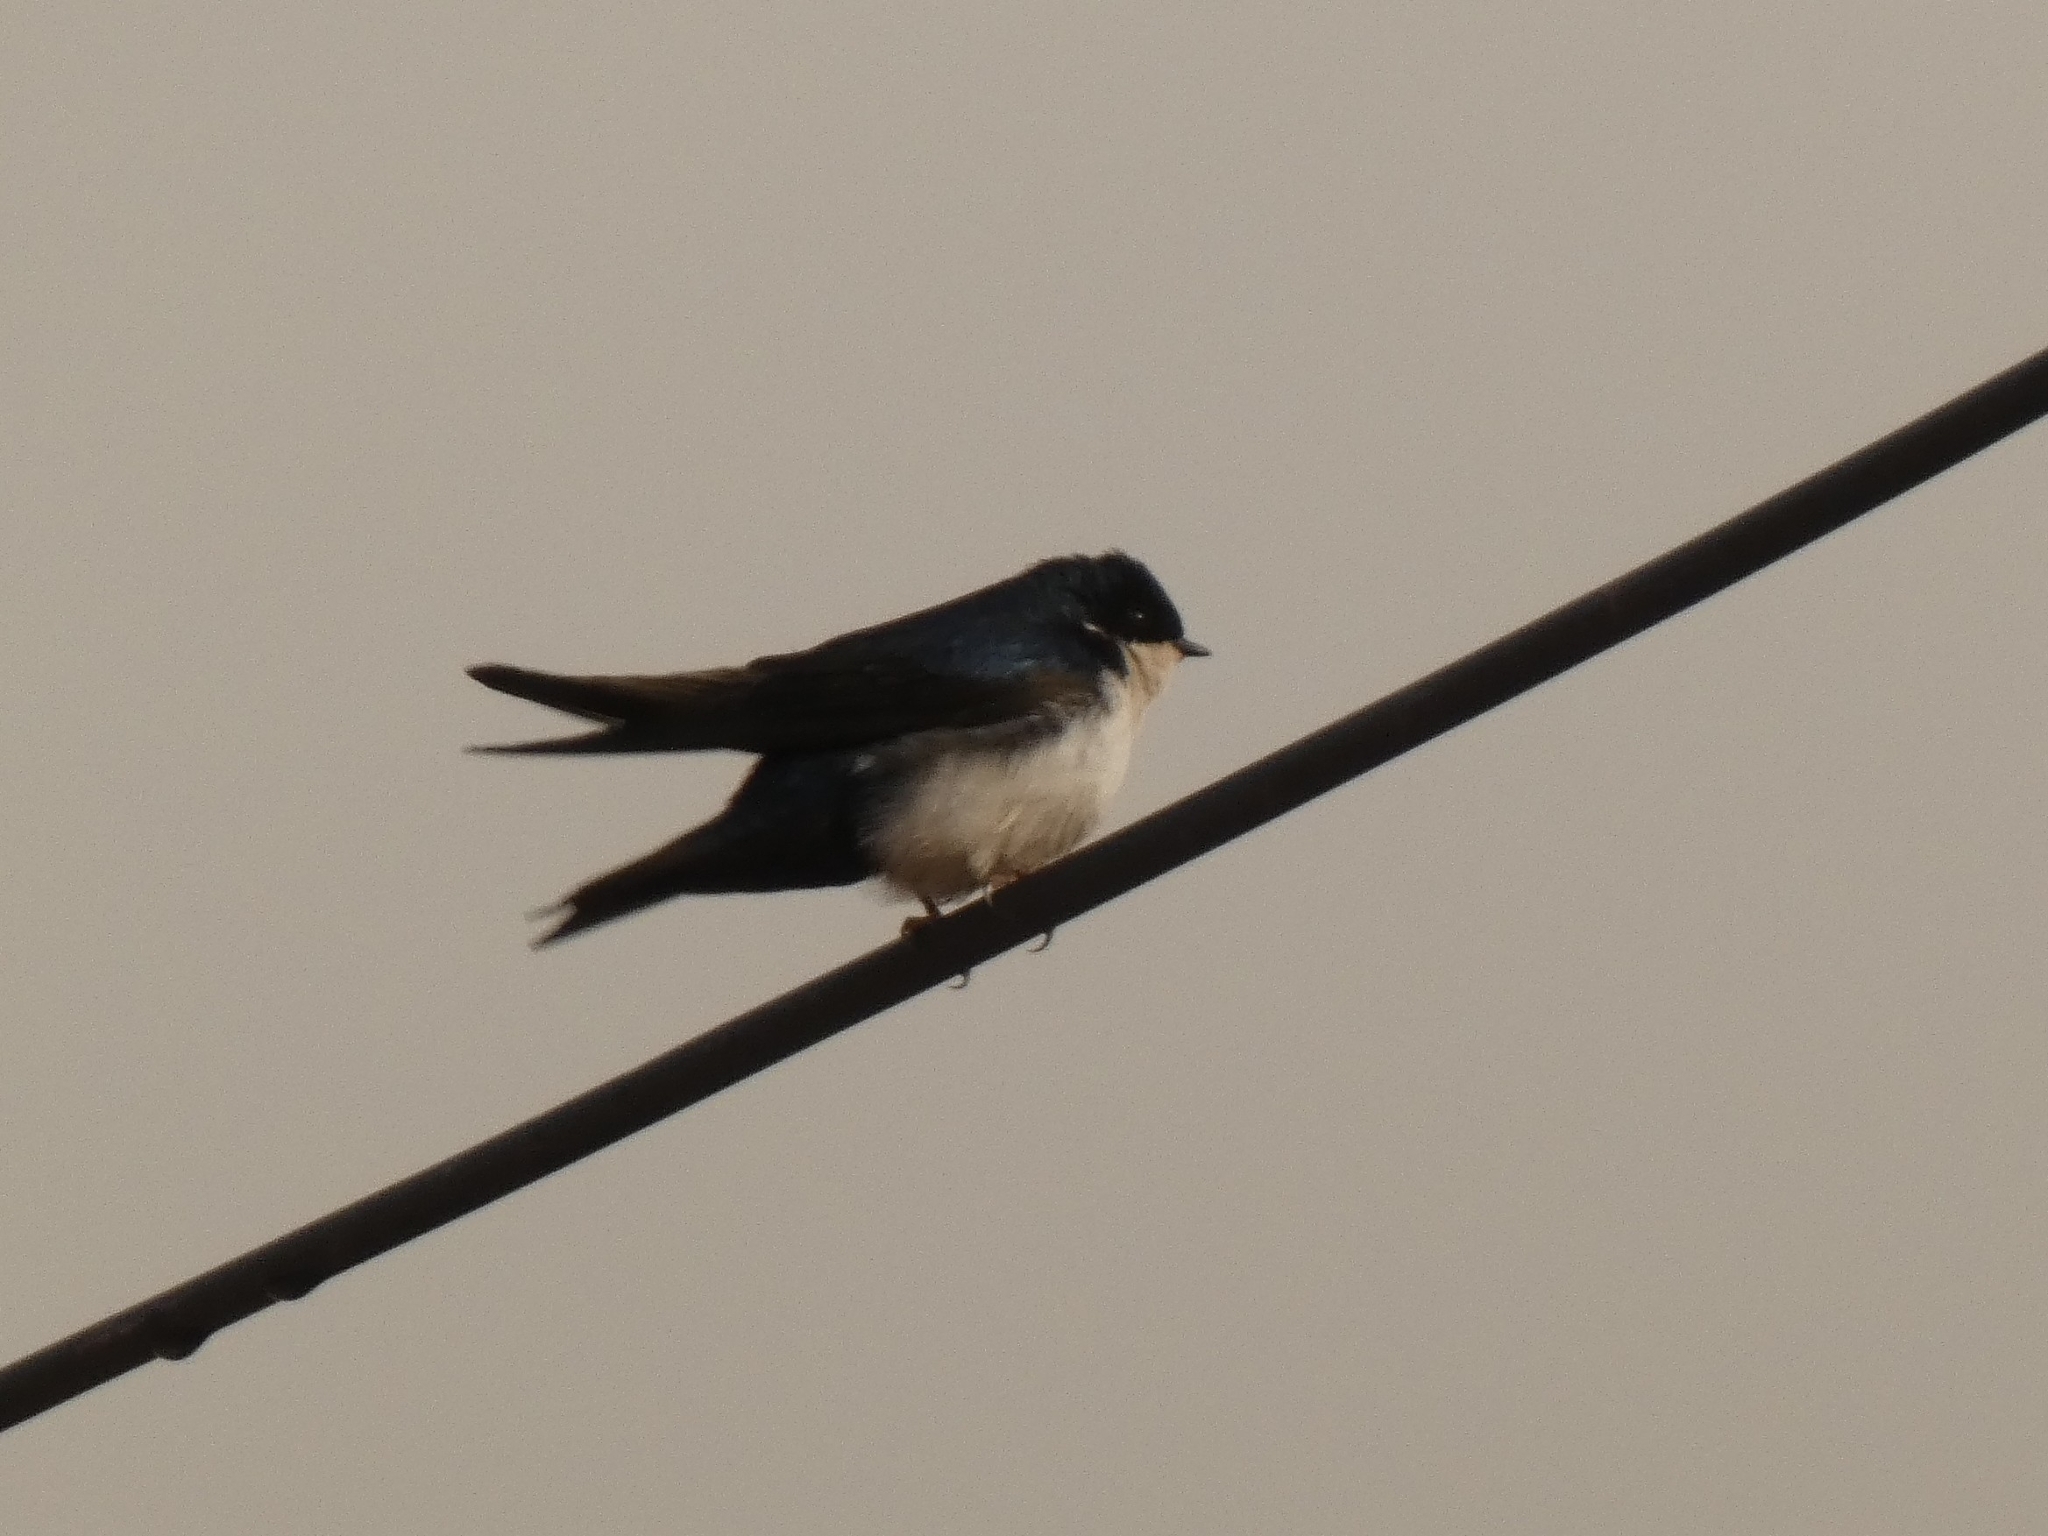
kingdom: Animalia
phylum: Chordata
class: Aves
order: Passeriformes
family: Hirundinidae
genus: Notiochelidon
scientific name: Notiochelidon cyanoleuca
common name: Blue-and-white swallow
